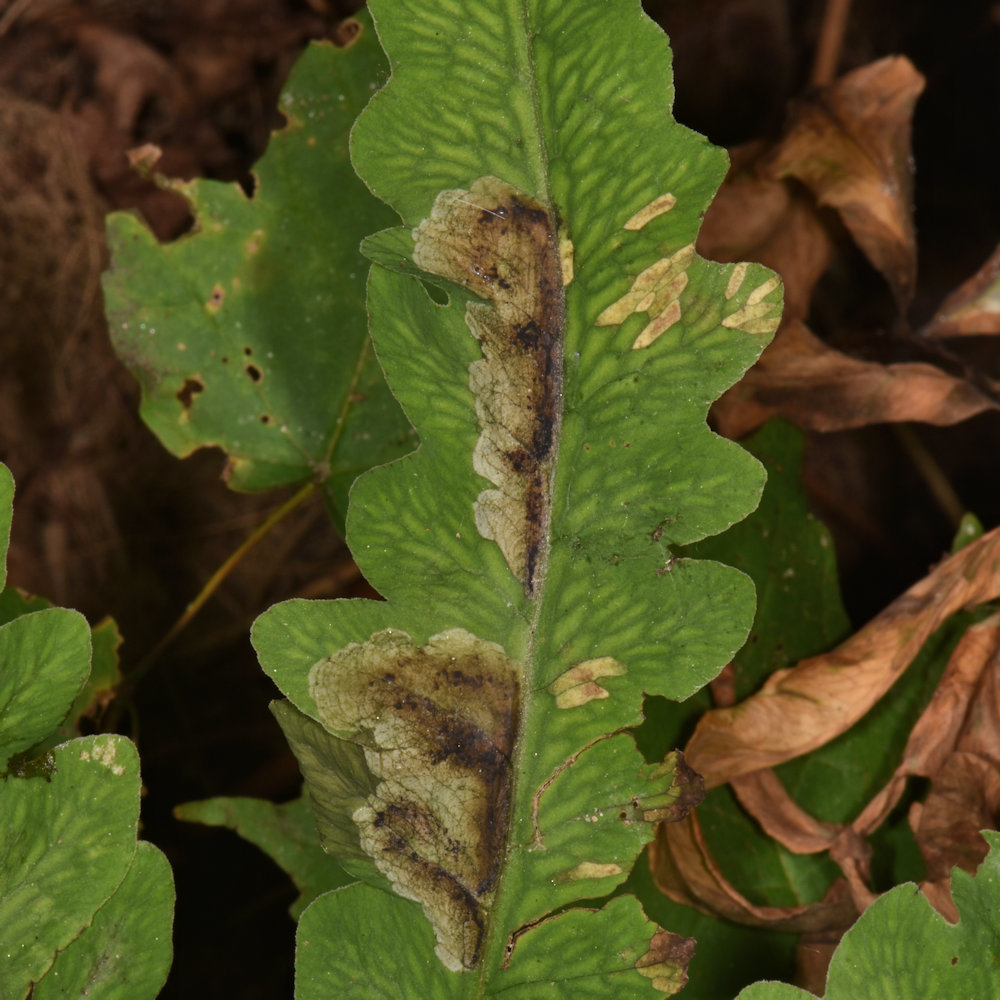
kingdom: Animalia
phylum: Arthropoda
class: Insecta
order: Diptera
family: Anthomyiidae
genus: Chirosia
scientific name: Chirosia gleniensis
